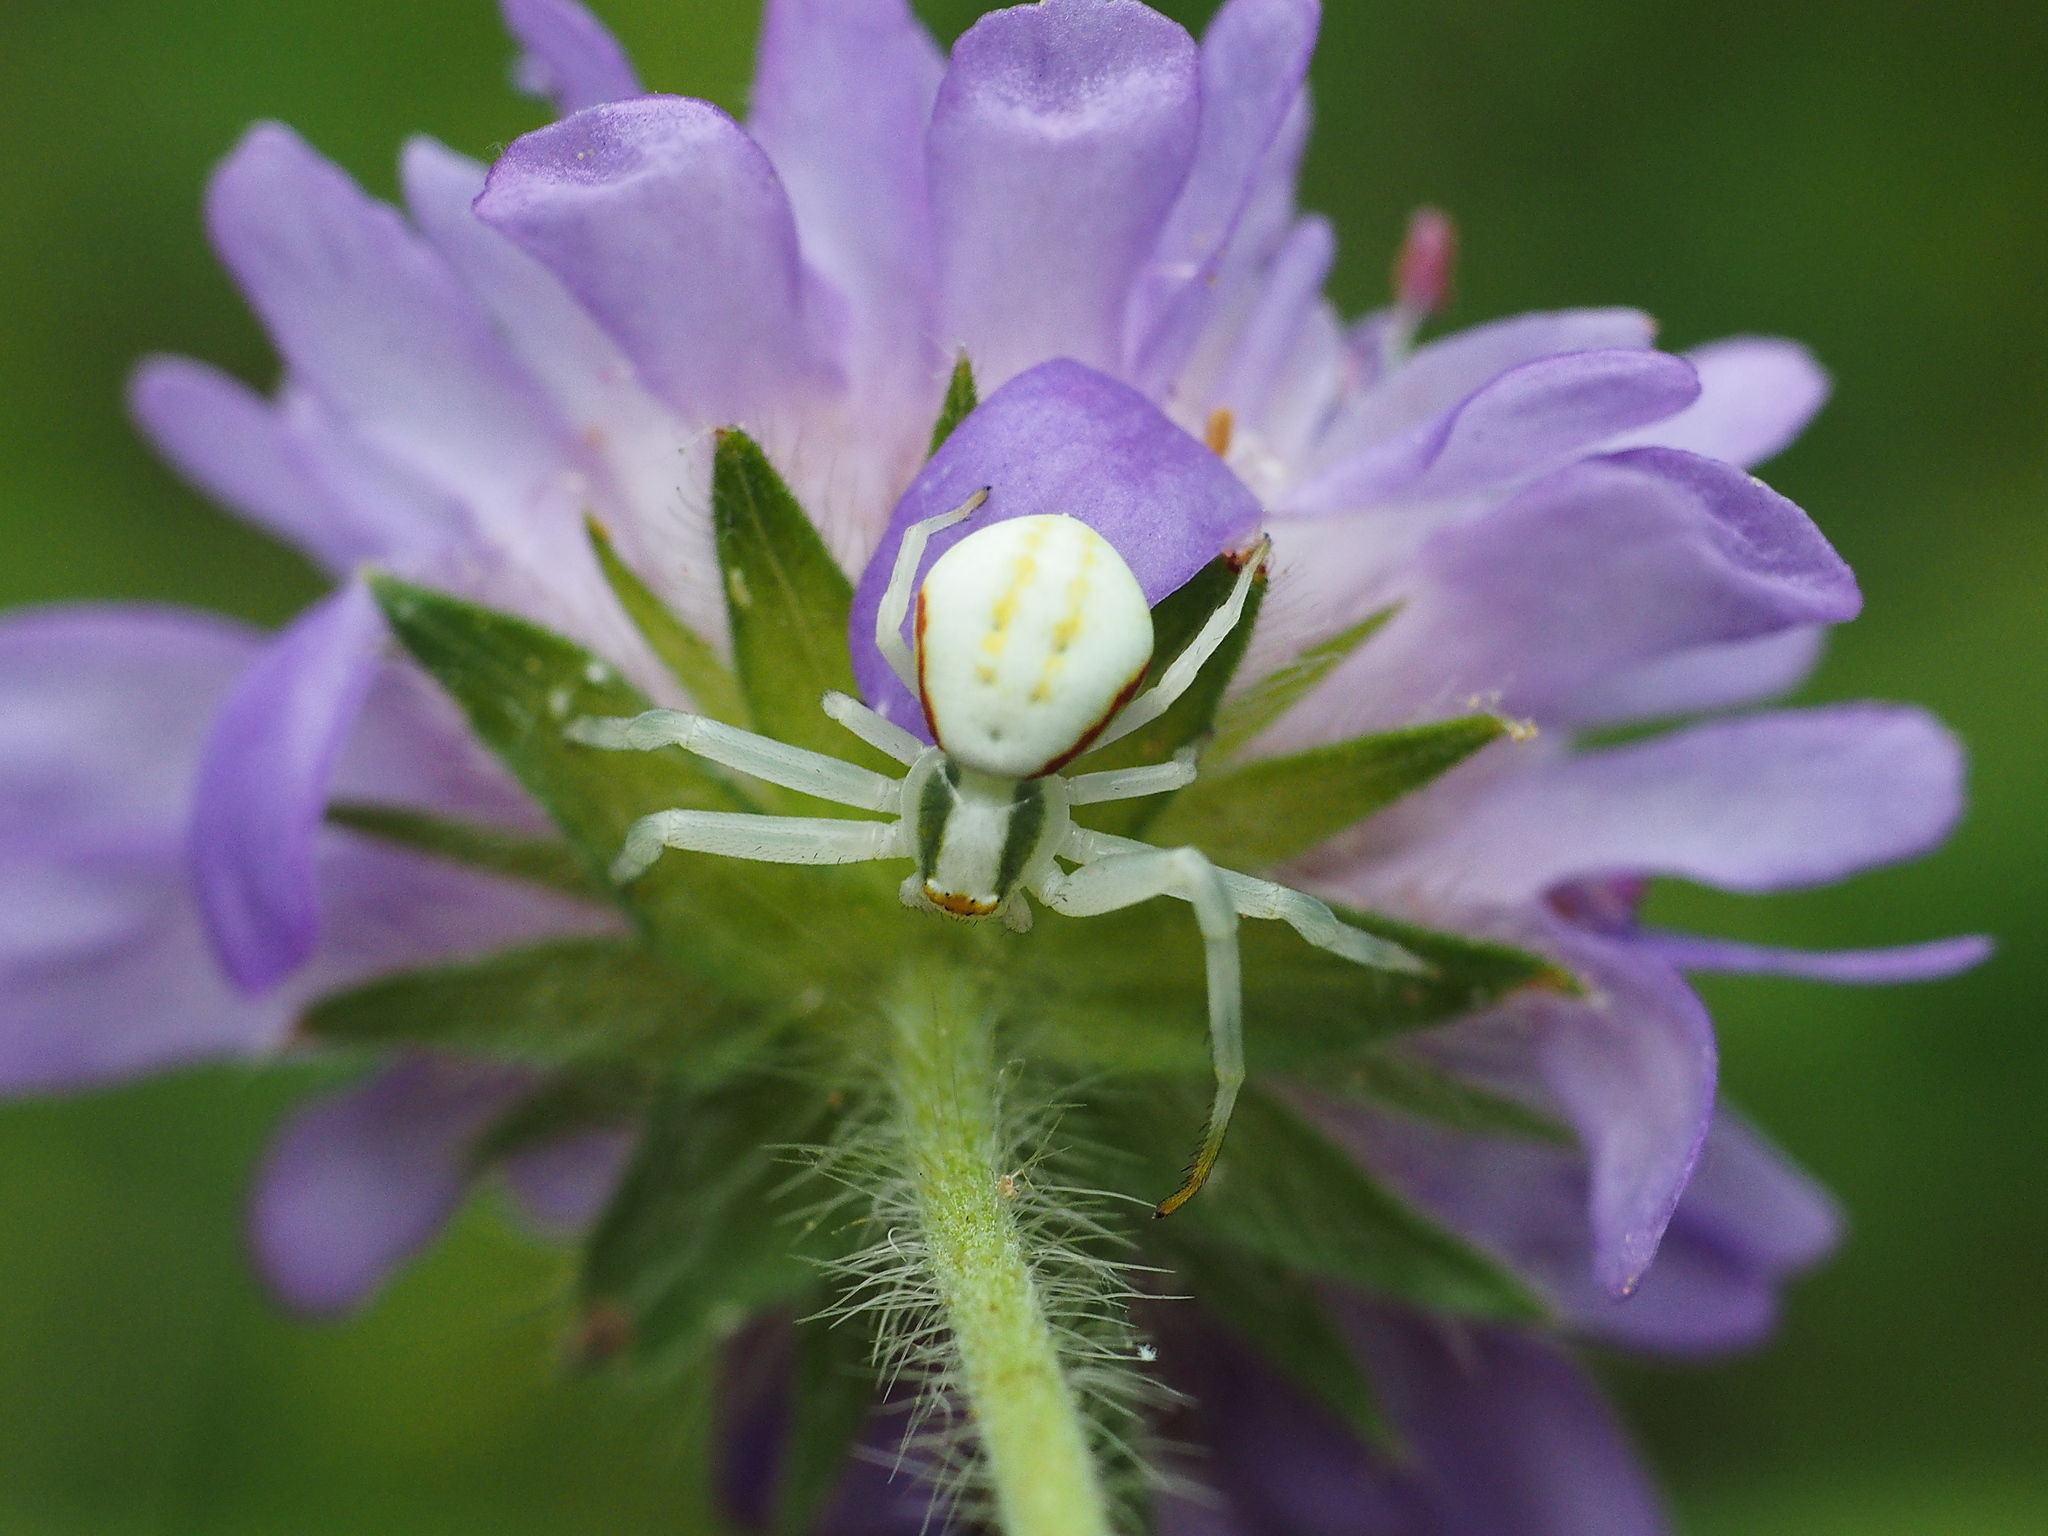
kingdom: Animalia
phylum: Arthropoda
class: Arachnida
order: Araneae
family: Thomisidae
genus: Misumena
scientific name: Misumena vatia
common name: Goldenrod crab spider
